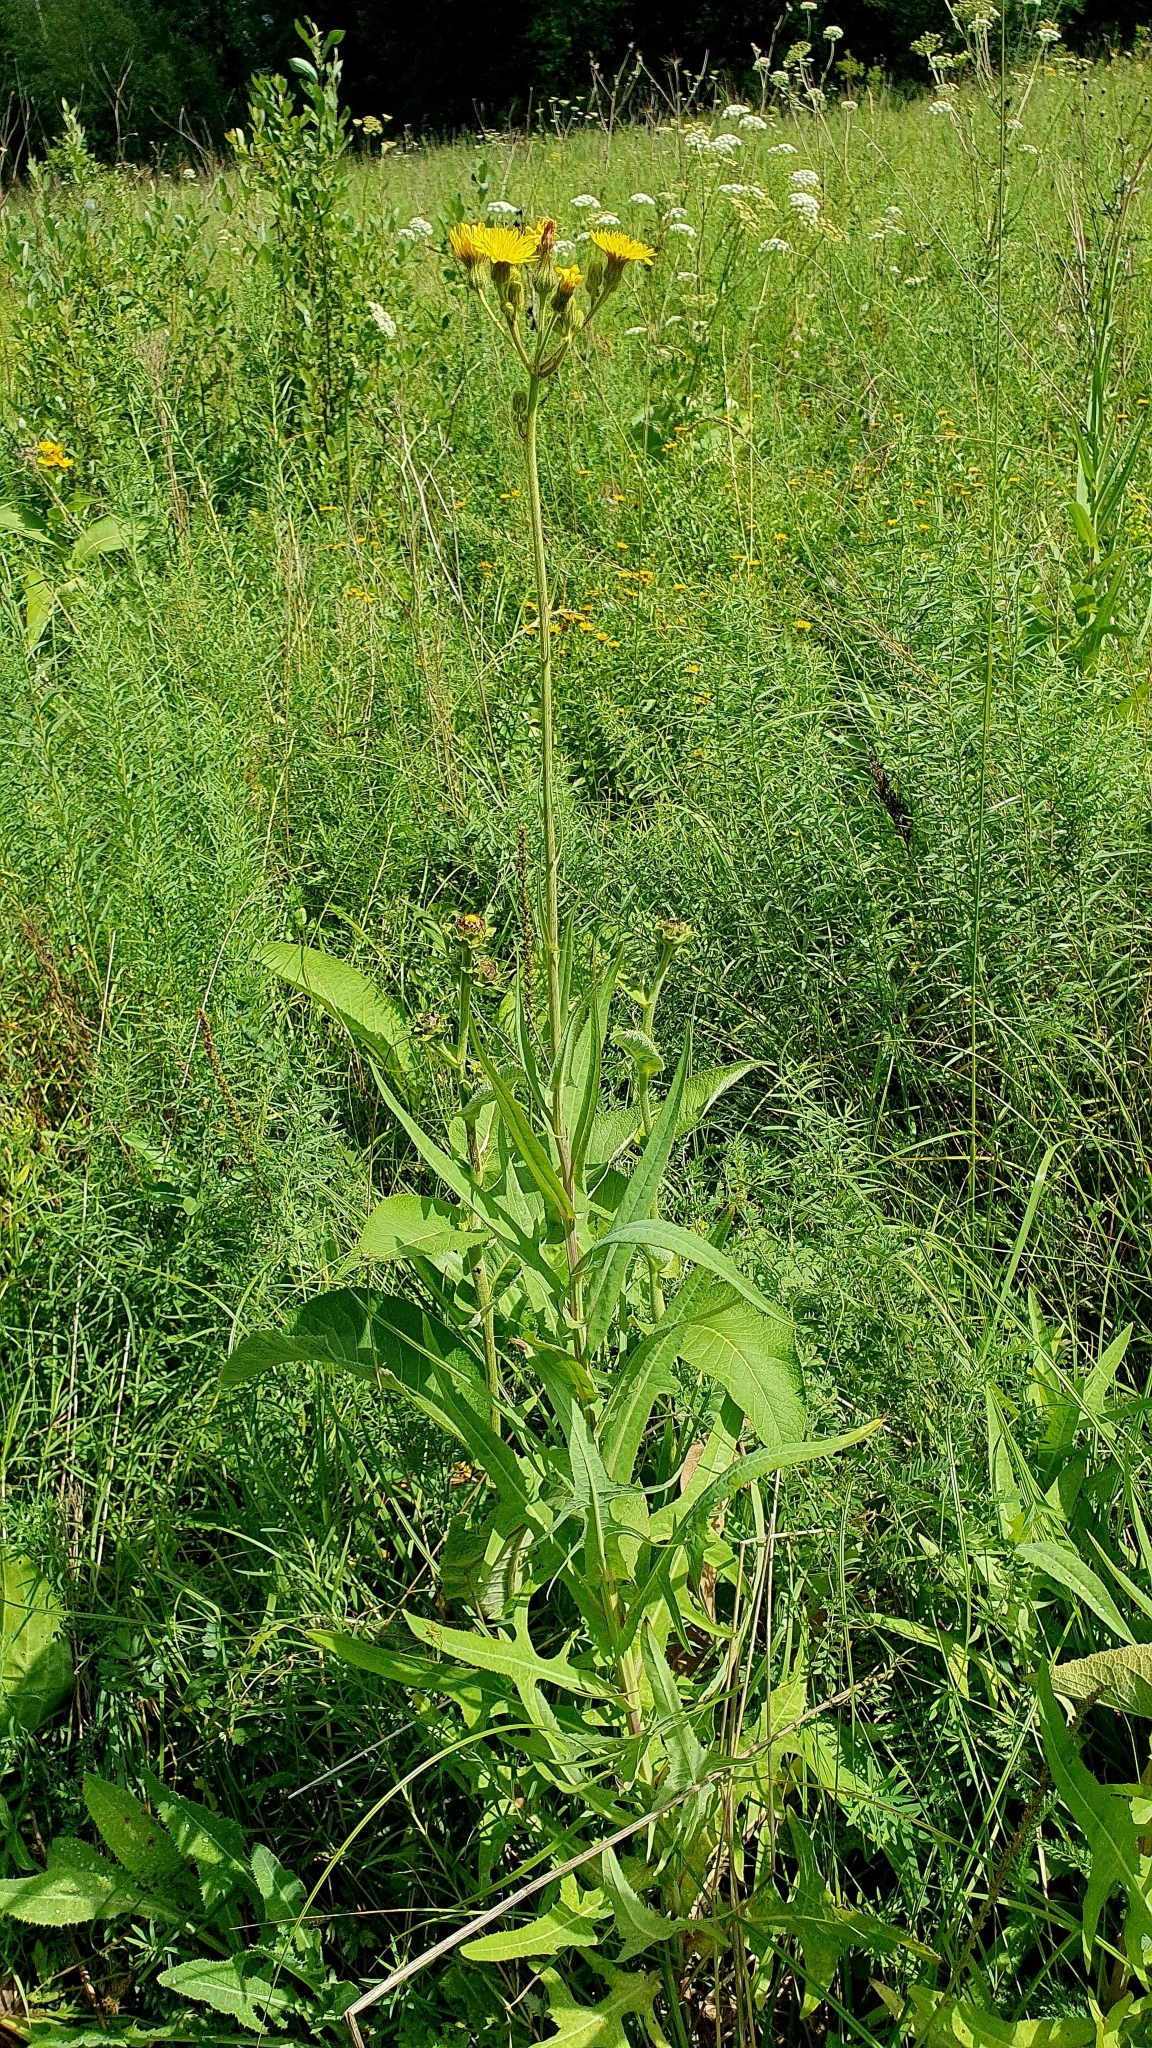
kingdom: Plantae
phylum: Tracheophyta
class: Magnoliopsida
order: Asterales
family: Asteraceae
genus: Sonchus
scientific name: Sonchus palustris
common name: Marsh sow-thistle
